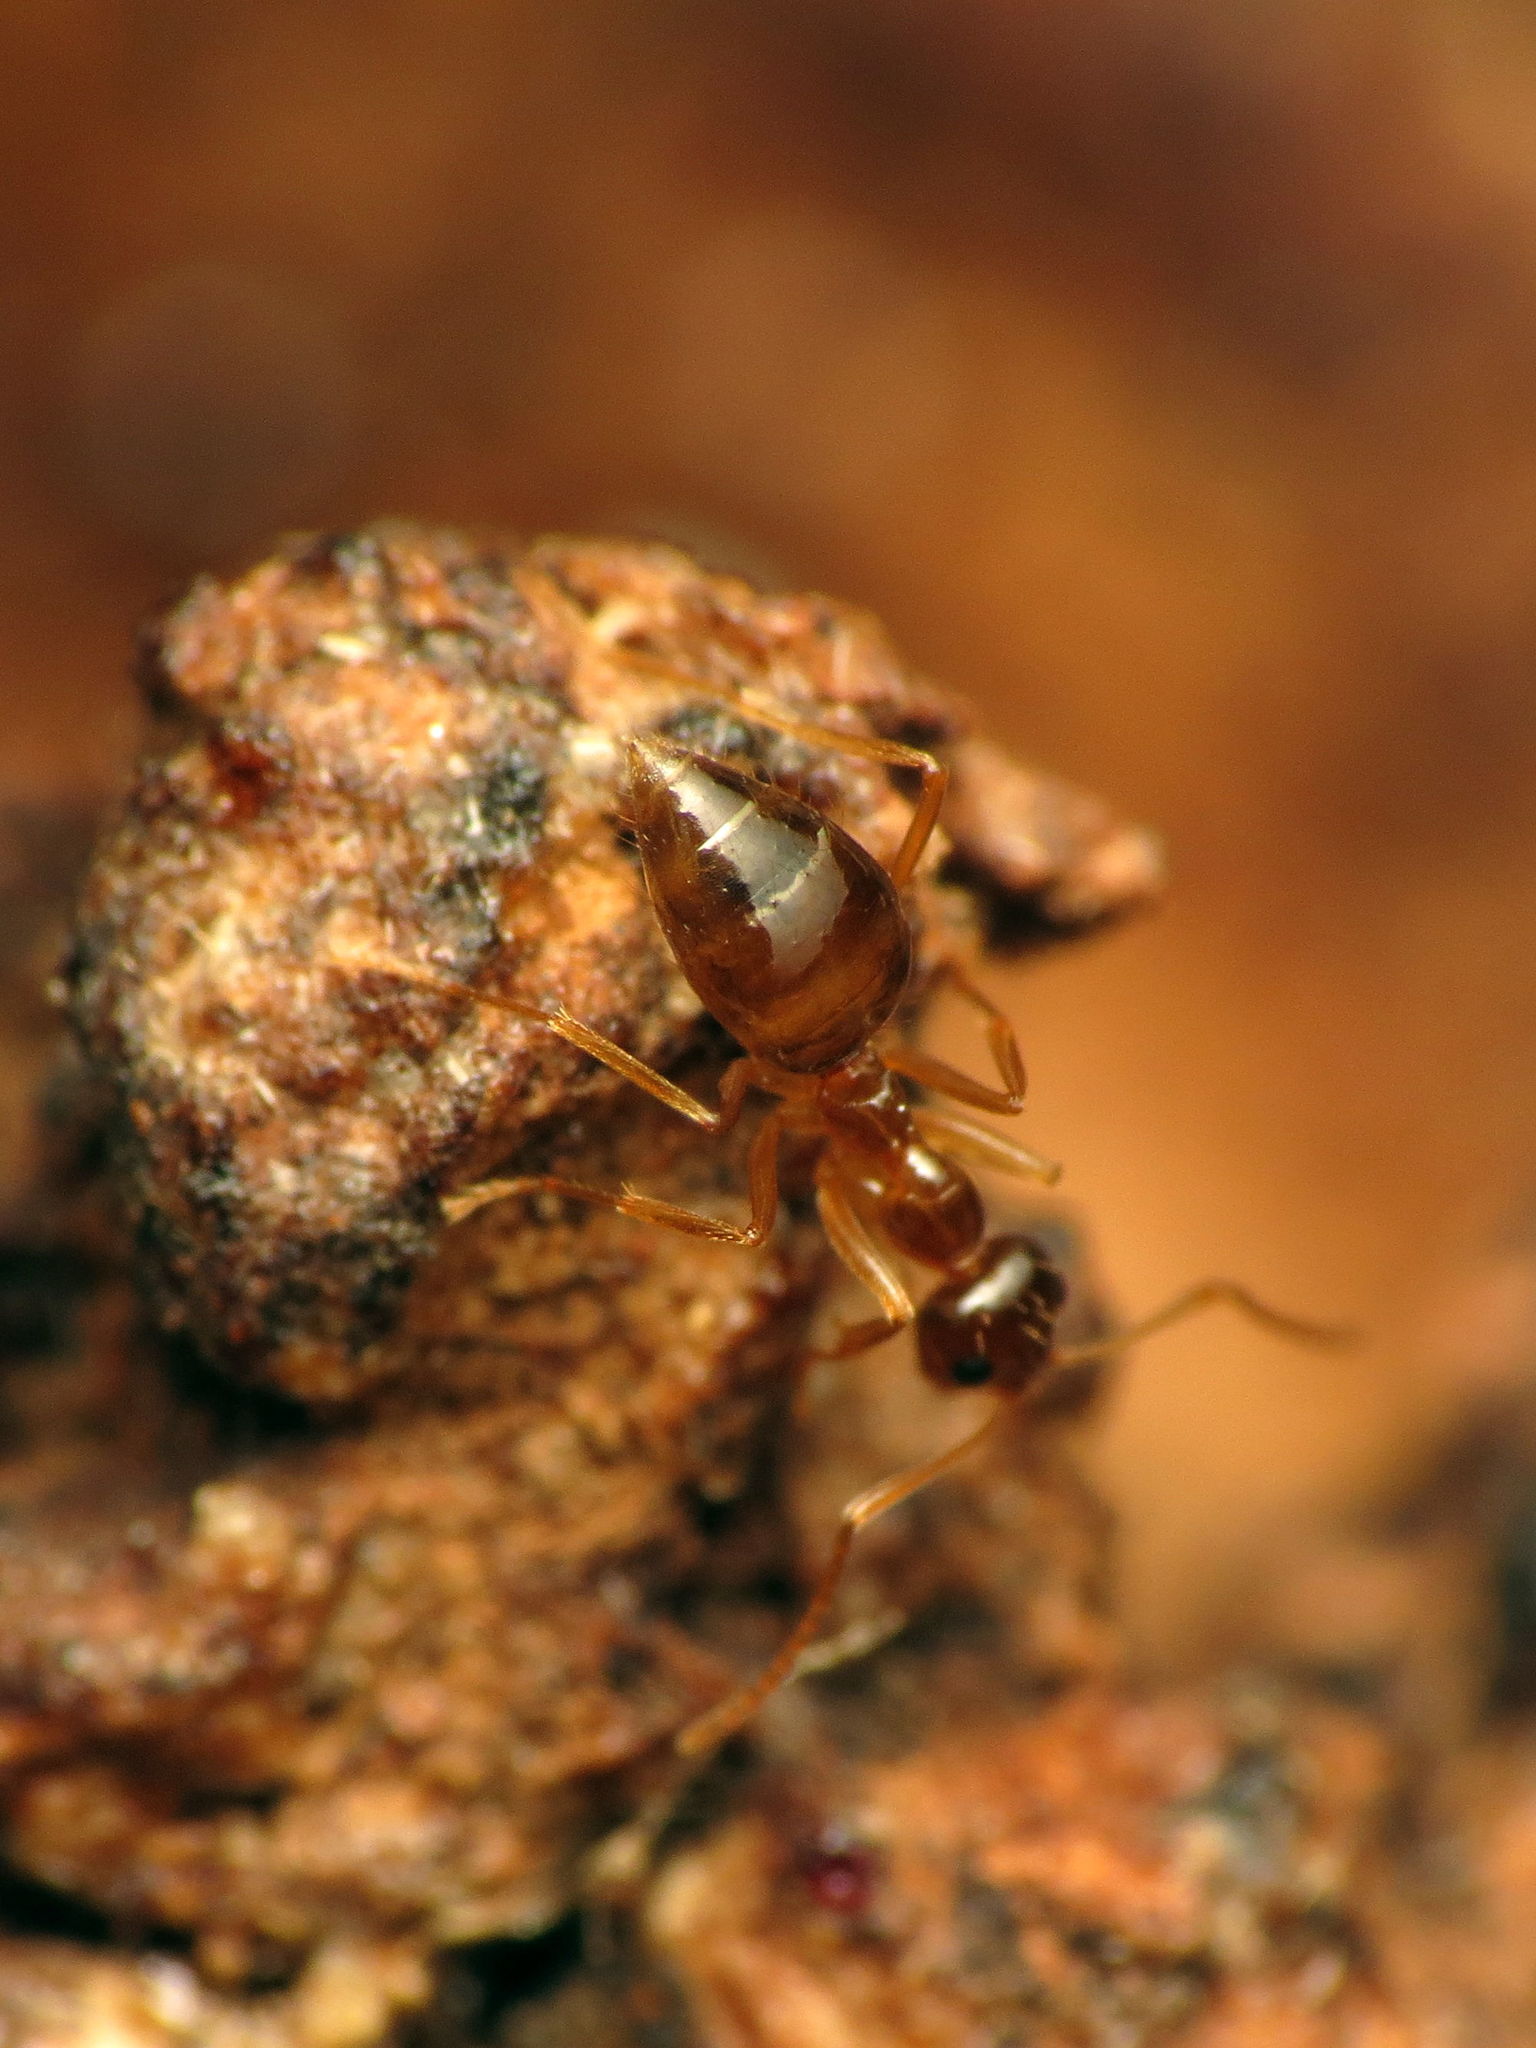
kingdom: Animalia
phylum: Arthropoda
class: Insecta
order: Hymenoptera
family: Formicidae
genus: Prenolepis
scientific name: Prenolepis imparis
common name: Small honey ant
